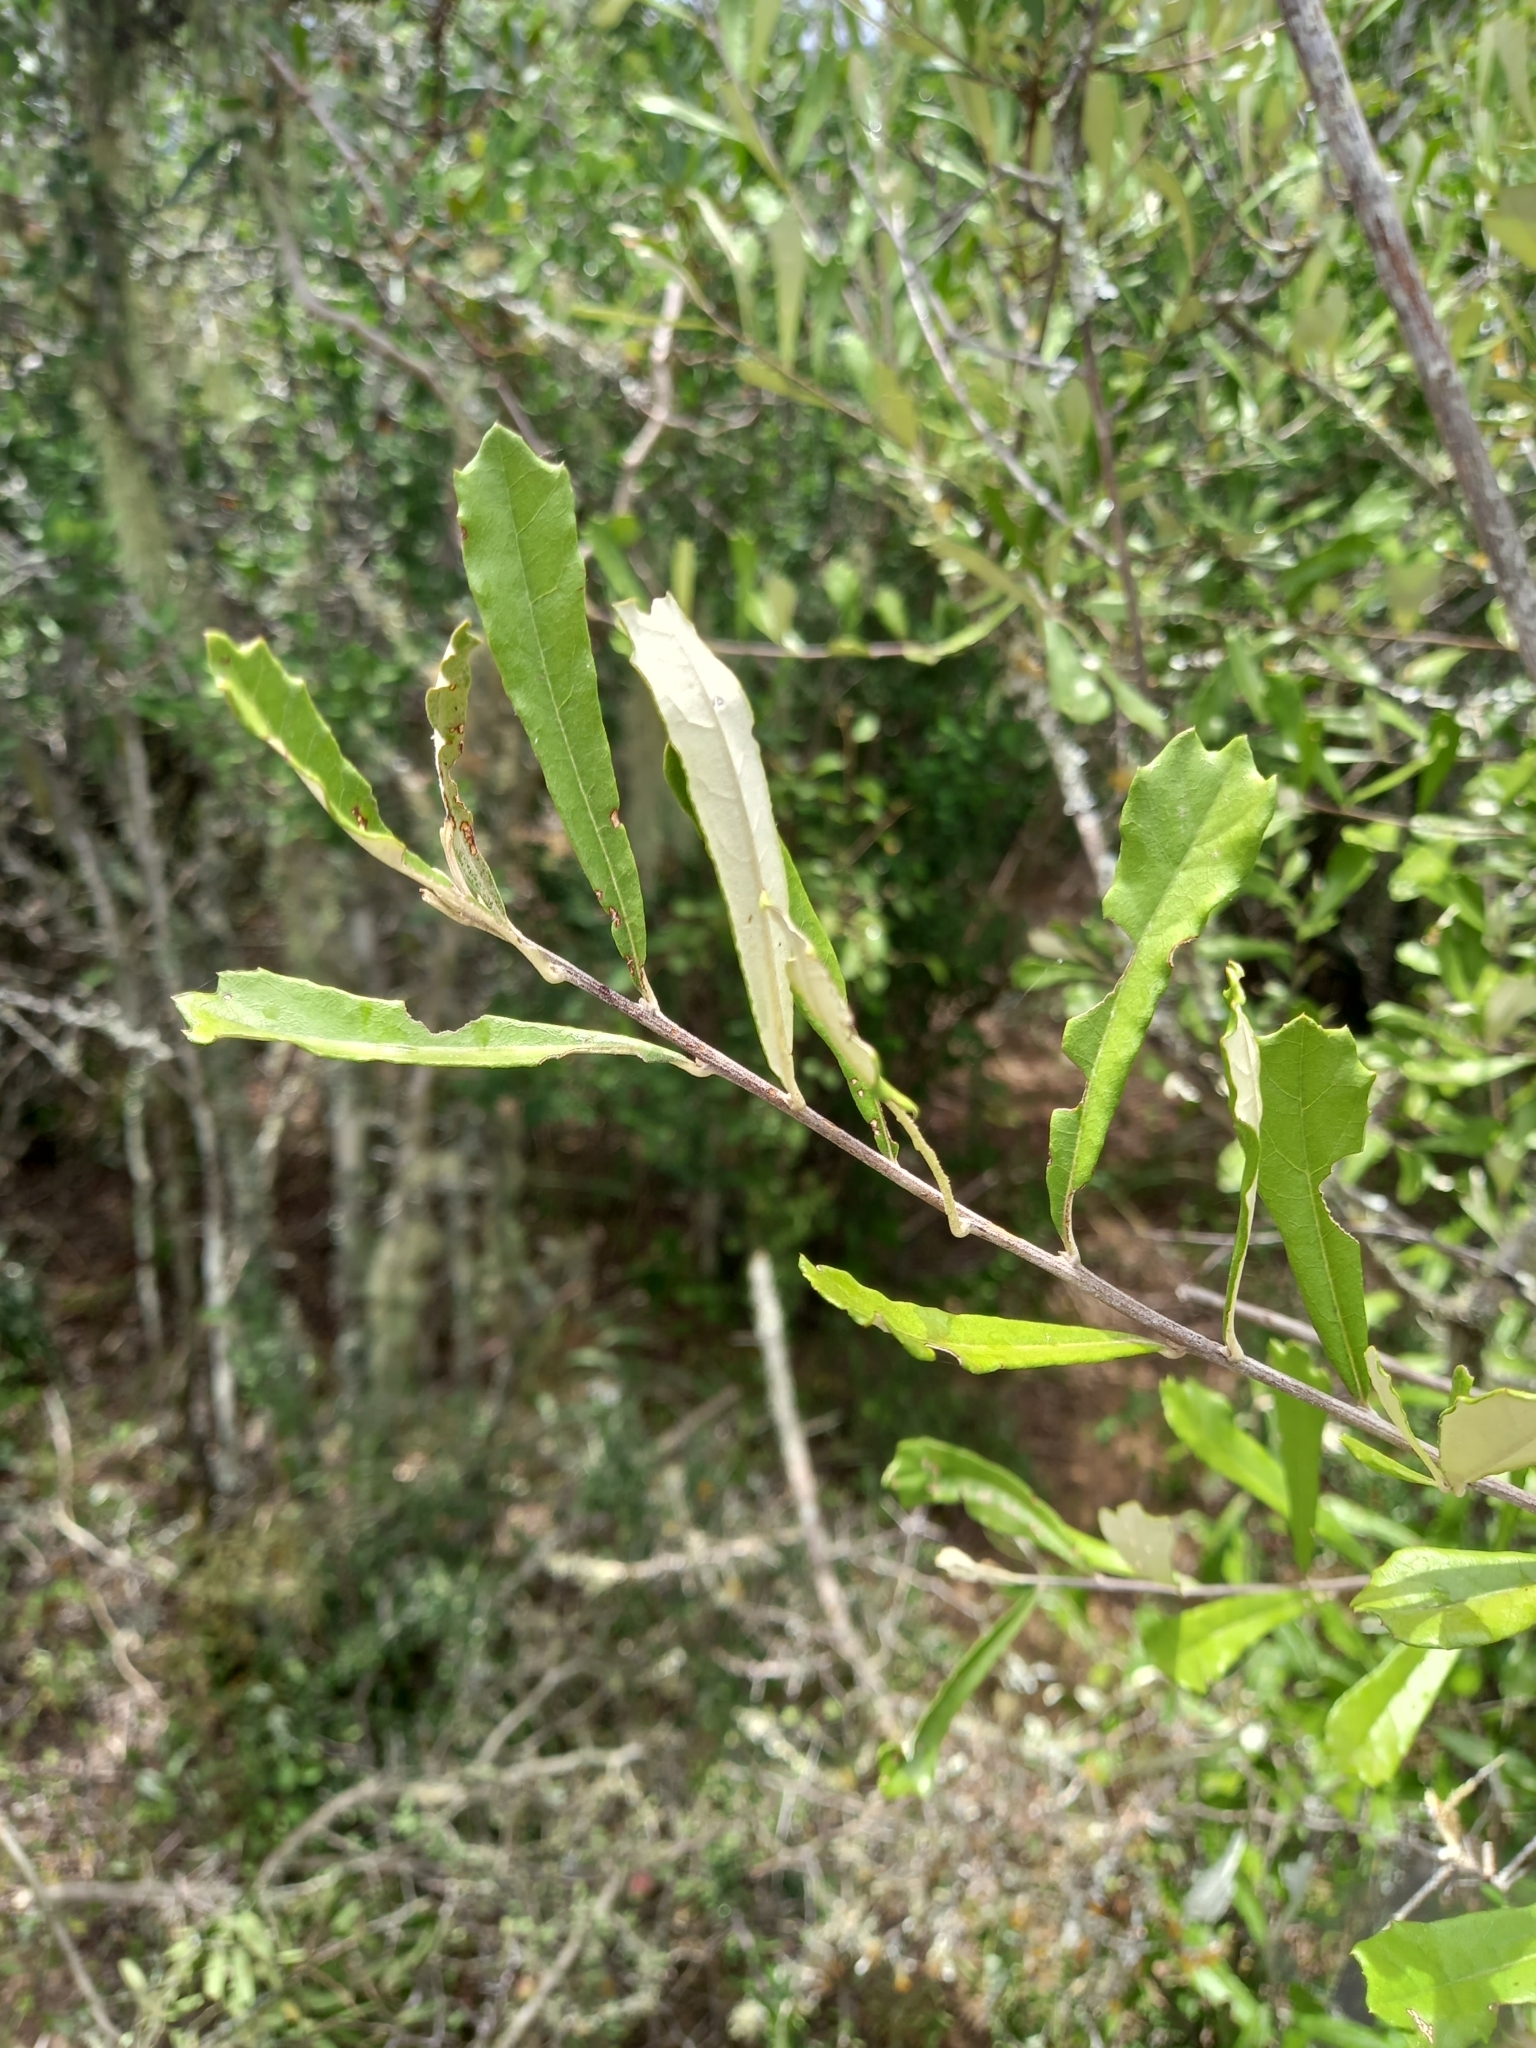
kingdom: Plantae
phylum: Tracheophyta
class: Magnoliopsida
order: Asterales
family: Asteraceae
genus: Brachylaena
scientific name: Brachylaena elliptica
